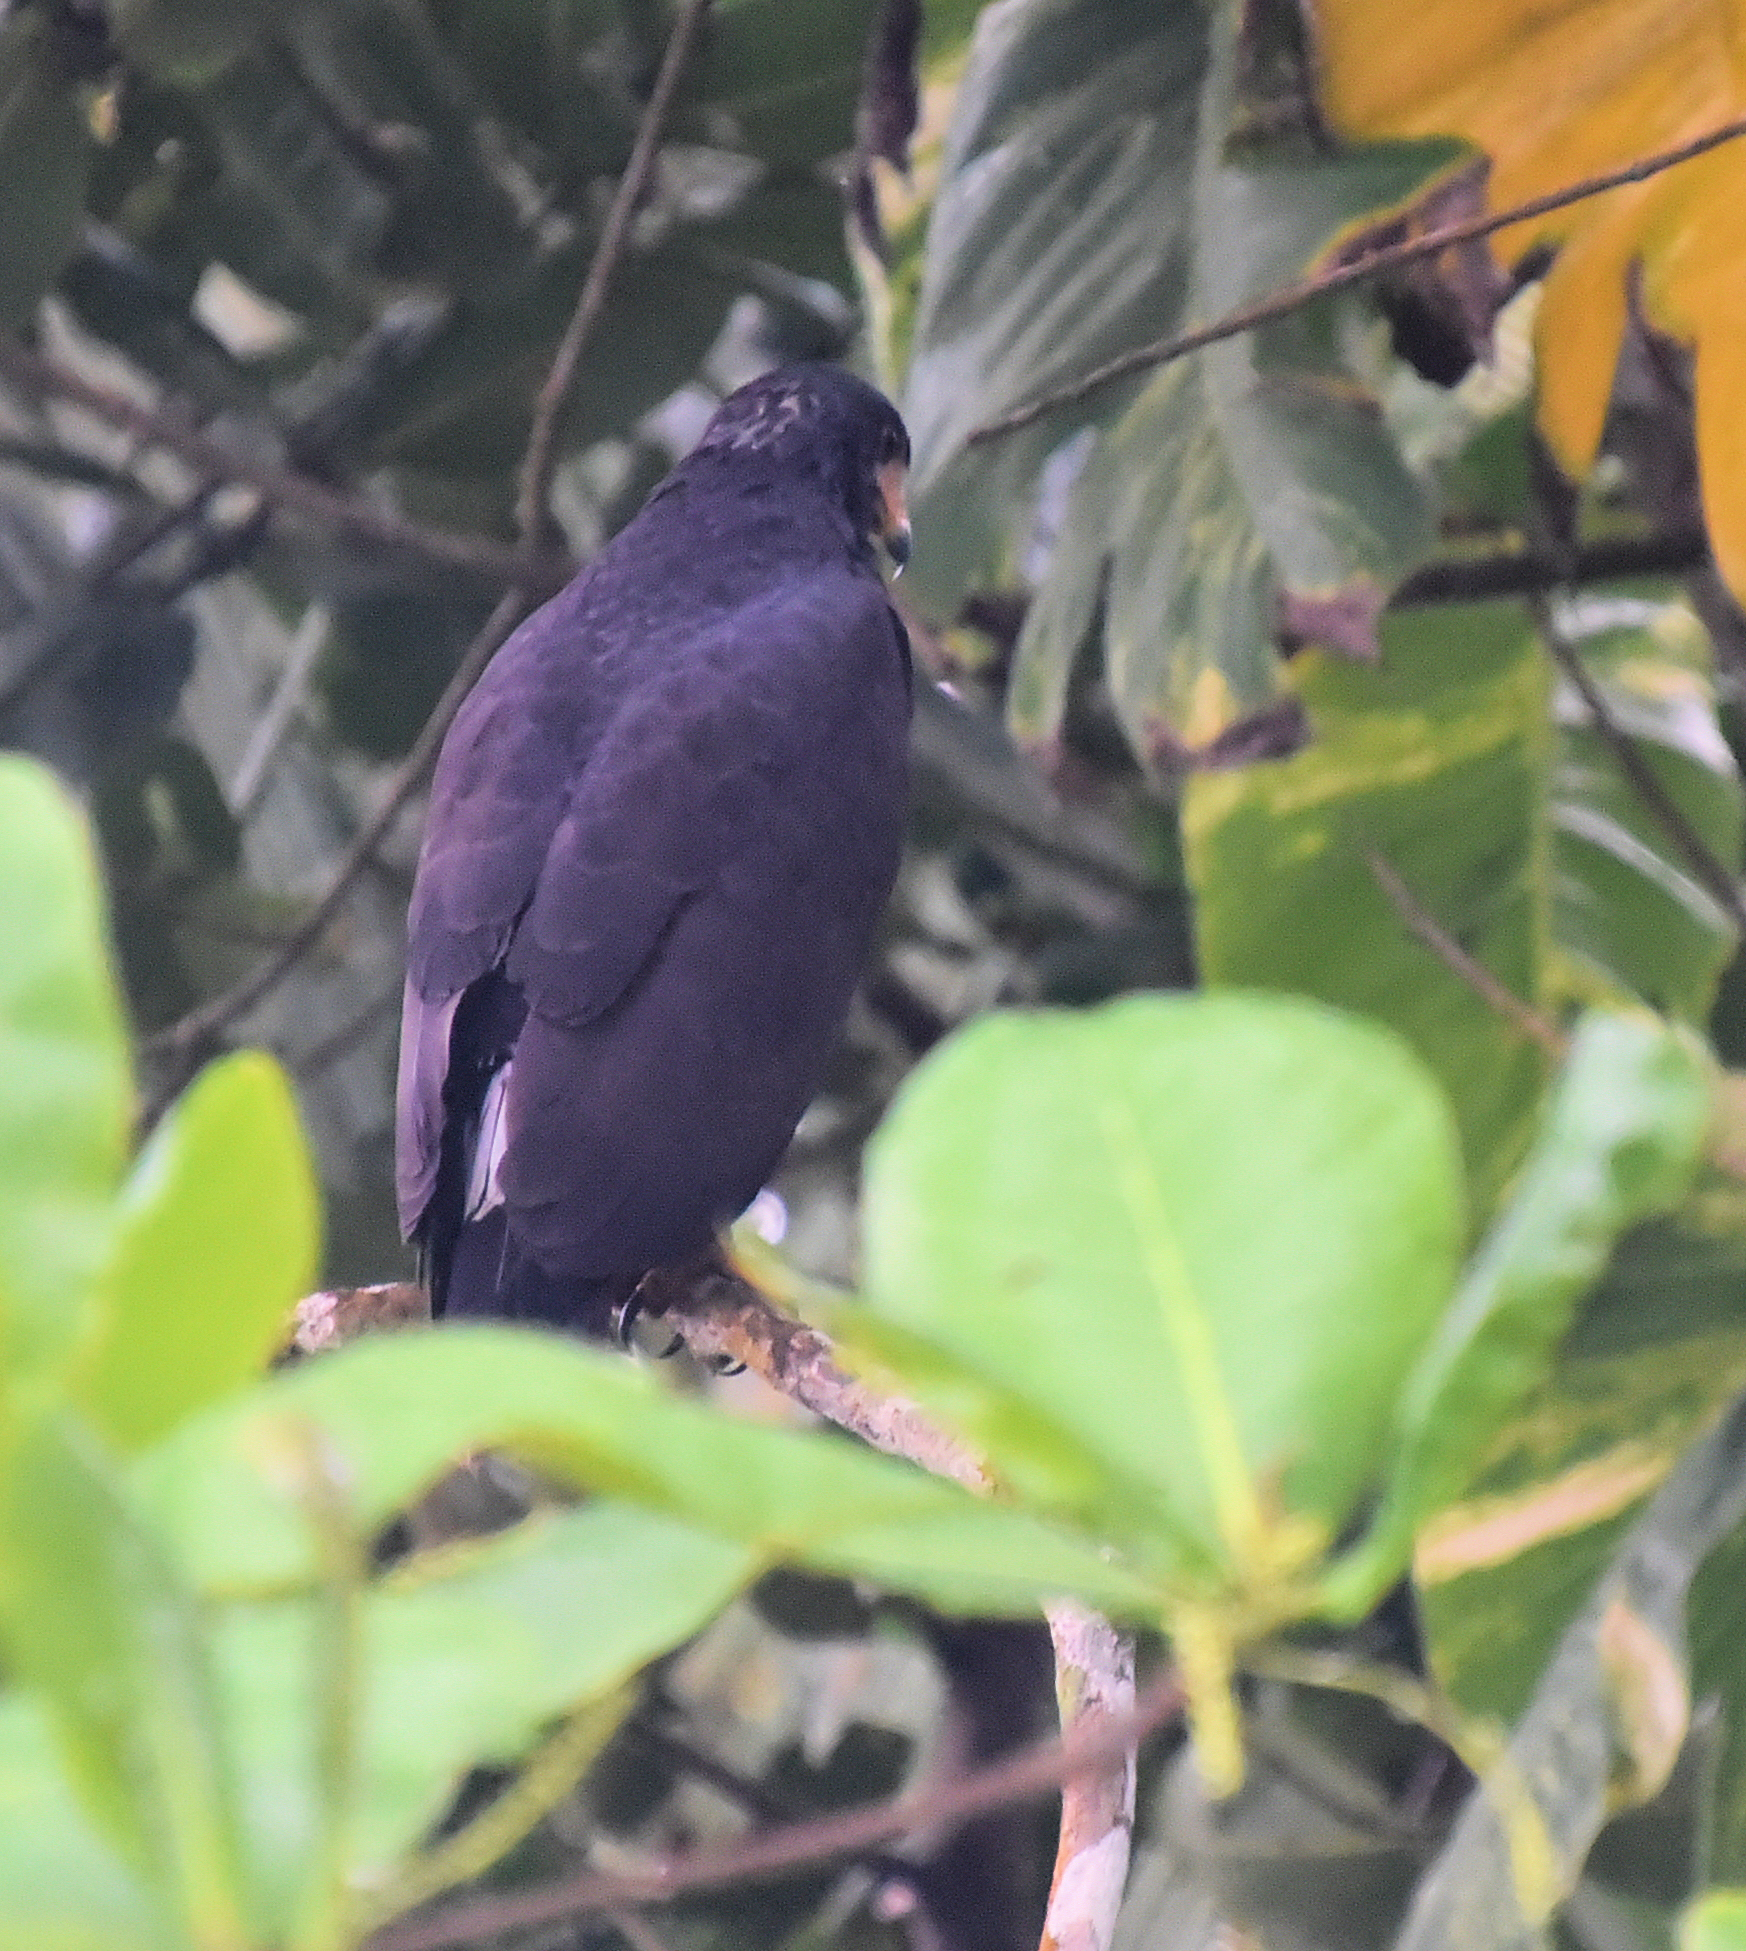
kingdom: Animalia
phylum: Chordata
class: Aves
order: Accipitriformes
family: Accipitridae
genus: Buteogallus
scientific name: Buteogallus anthracinus
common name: Common black hawk
